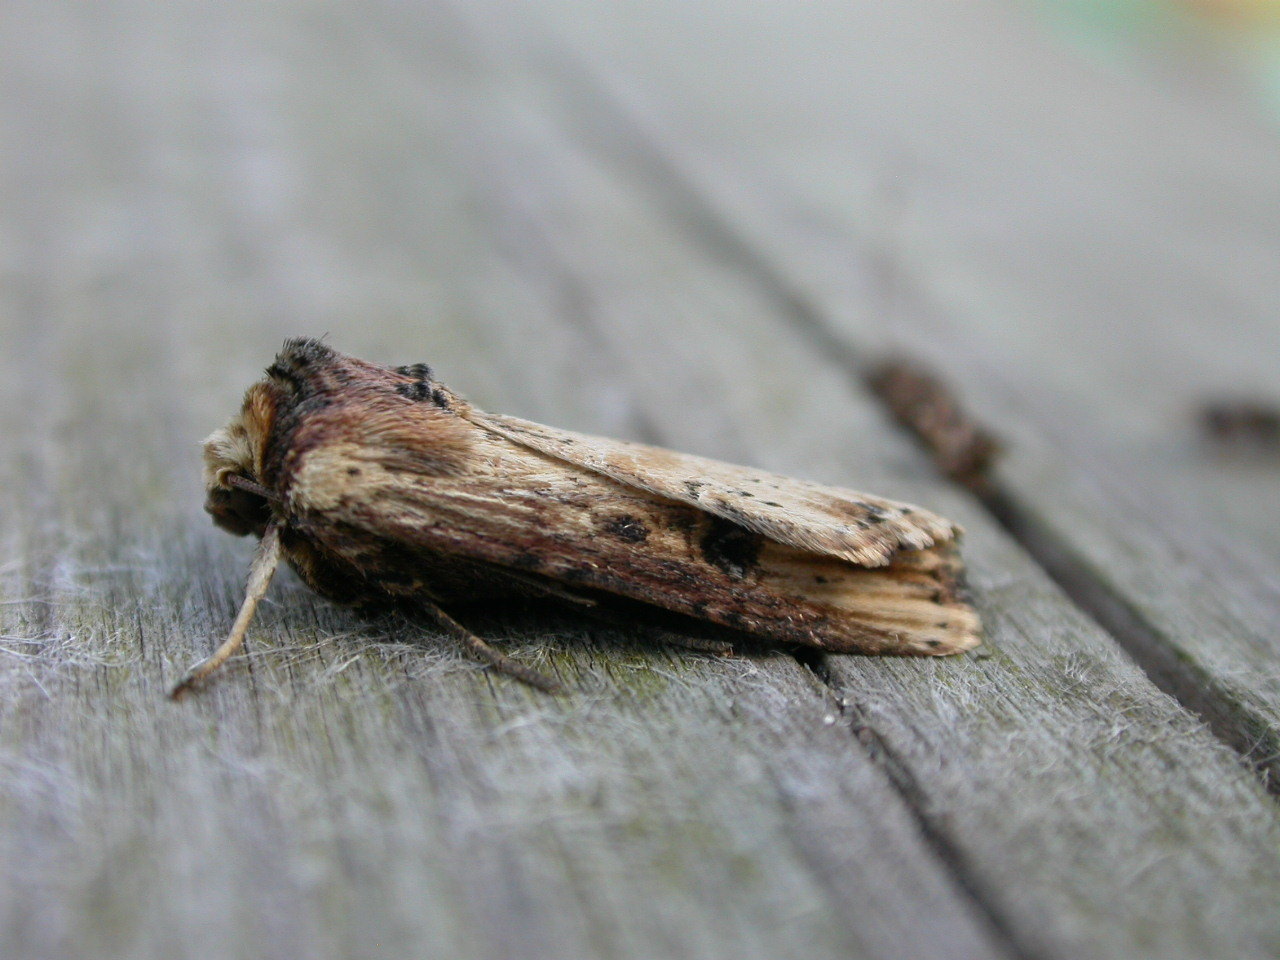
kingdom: Animalia
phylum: Arthropoda
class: Insecta
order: Lepidoptera
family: Noctuidae
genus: Axylia
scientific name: Axylia putris
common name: Flame
